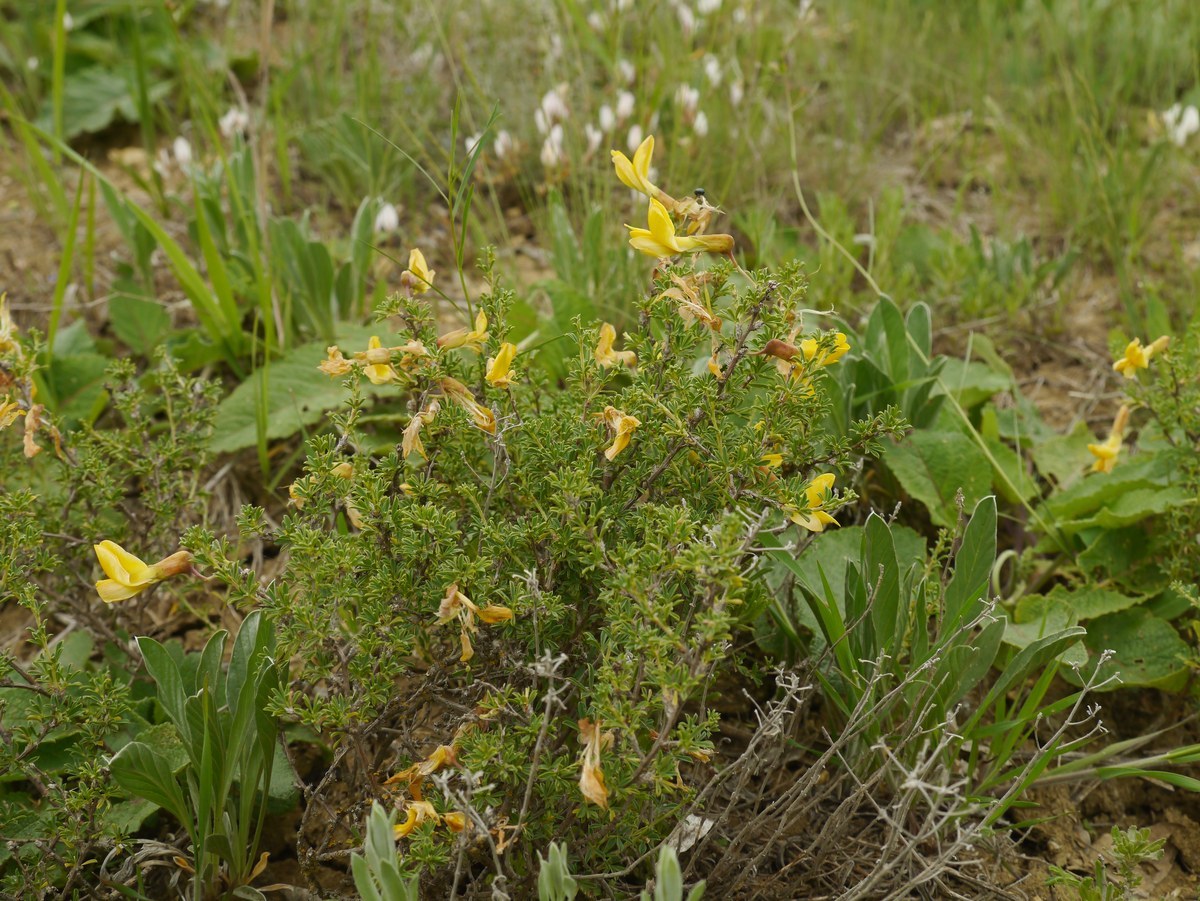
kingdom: Plantae
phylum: Tracheophyta
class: Magnoliopsida
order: Fabales
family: Fabaceae
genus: Caragana
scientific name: Caragana scythica
